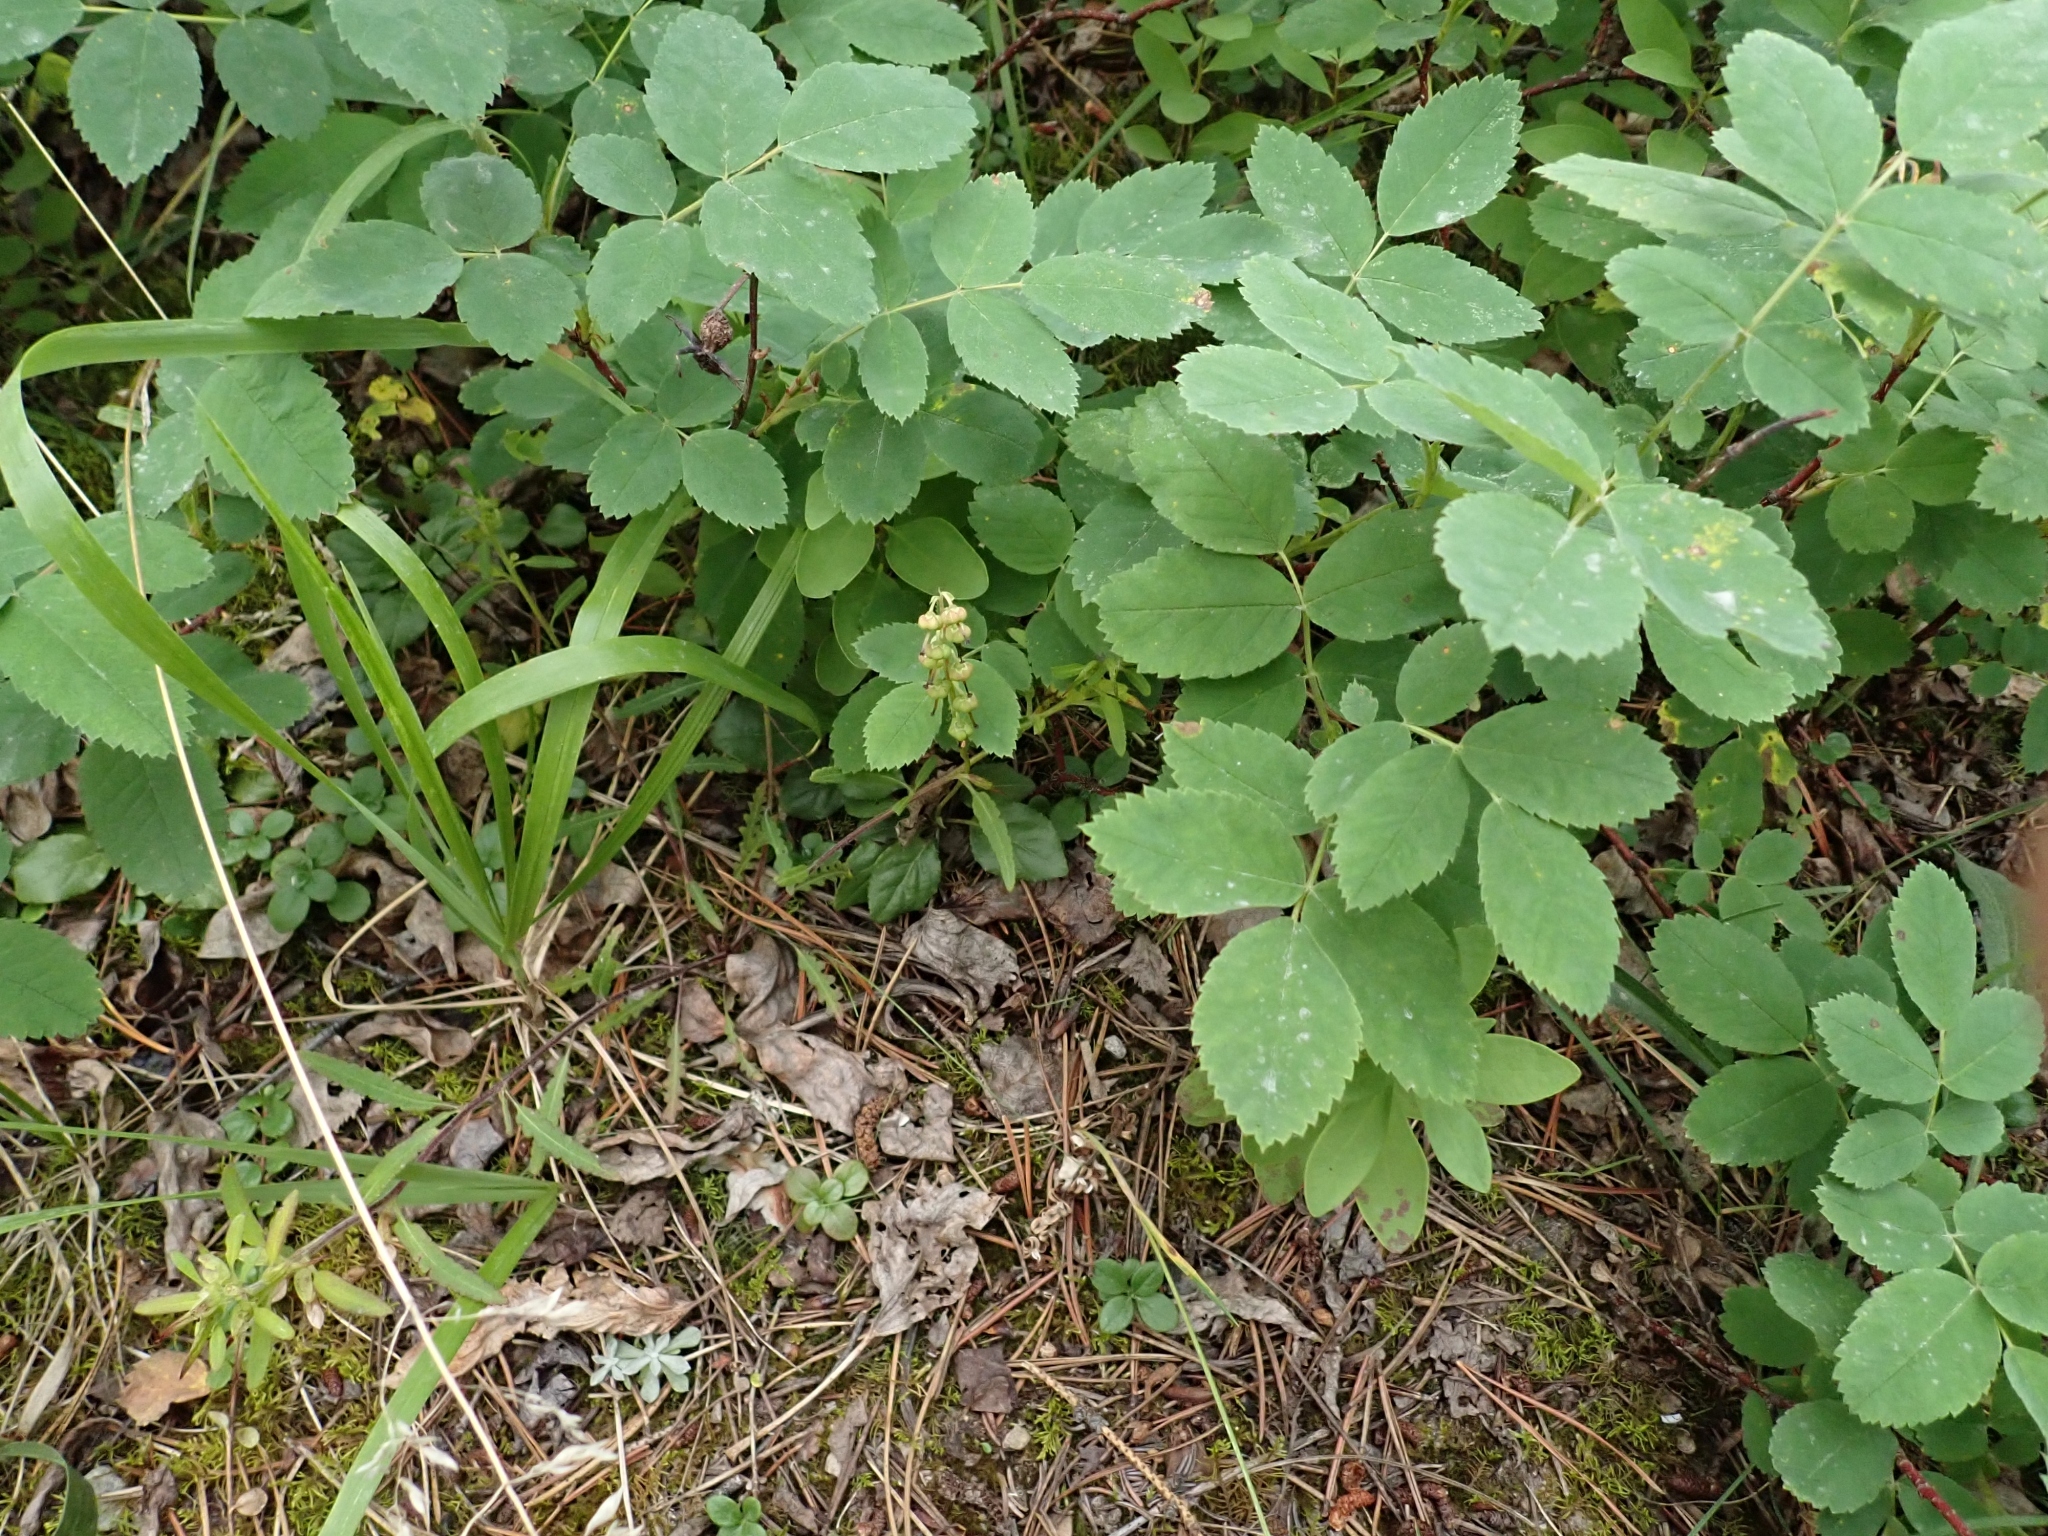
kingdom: Plantae
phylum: Tracheophyta
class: Magnoliopsida
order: Ericales
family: Ericaceae
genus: Orthilia
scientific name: Orthilia secunda
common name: One-sided orthilia
